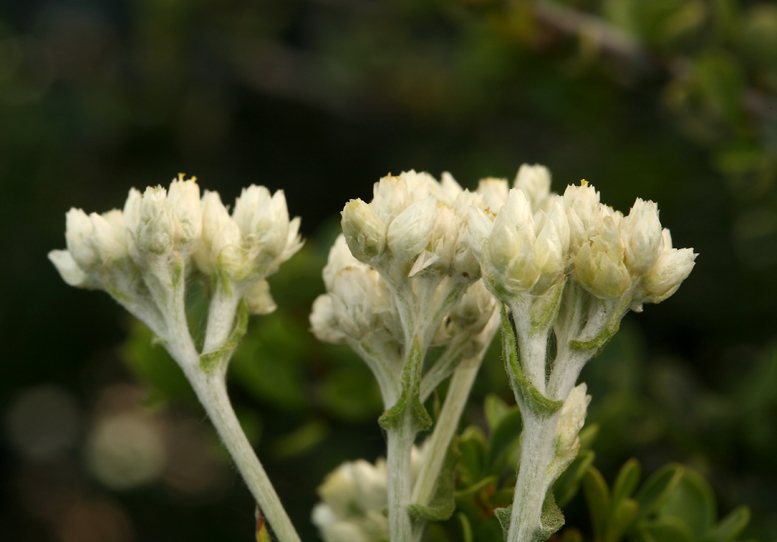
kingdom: Plantae
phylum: Tracheophyta
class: Magnoliopsida
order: Asterales
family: Asteraceae
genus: Pseudognaphalium
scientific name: Pseudognaphalium biolettii
